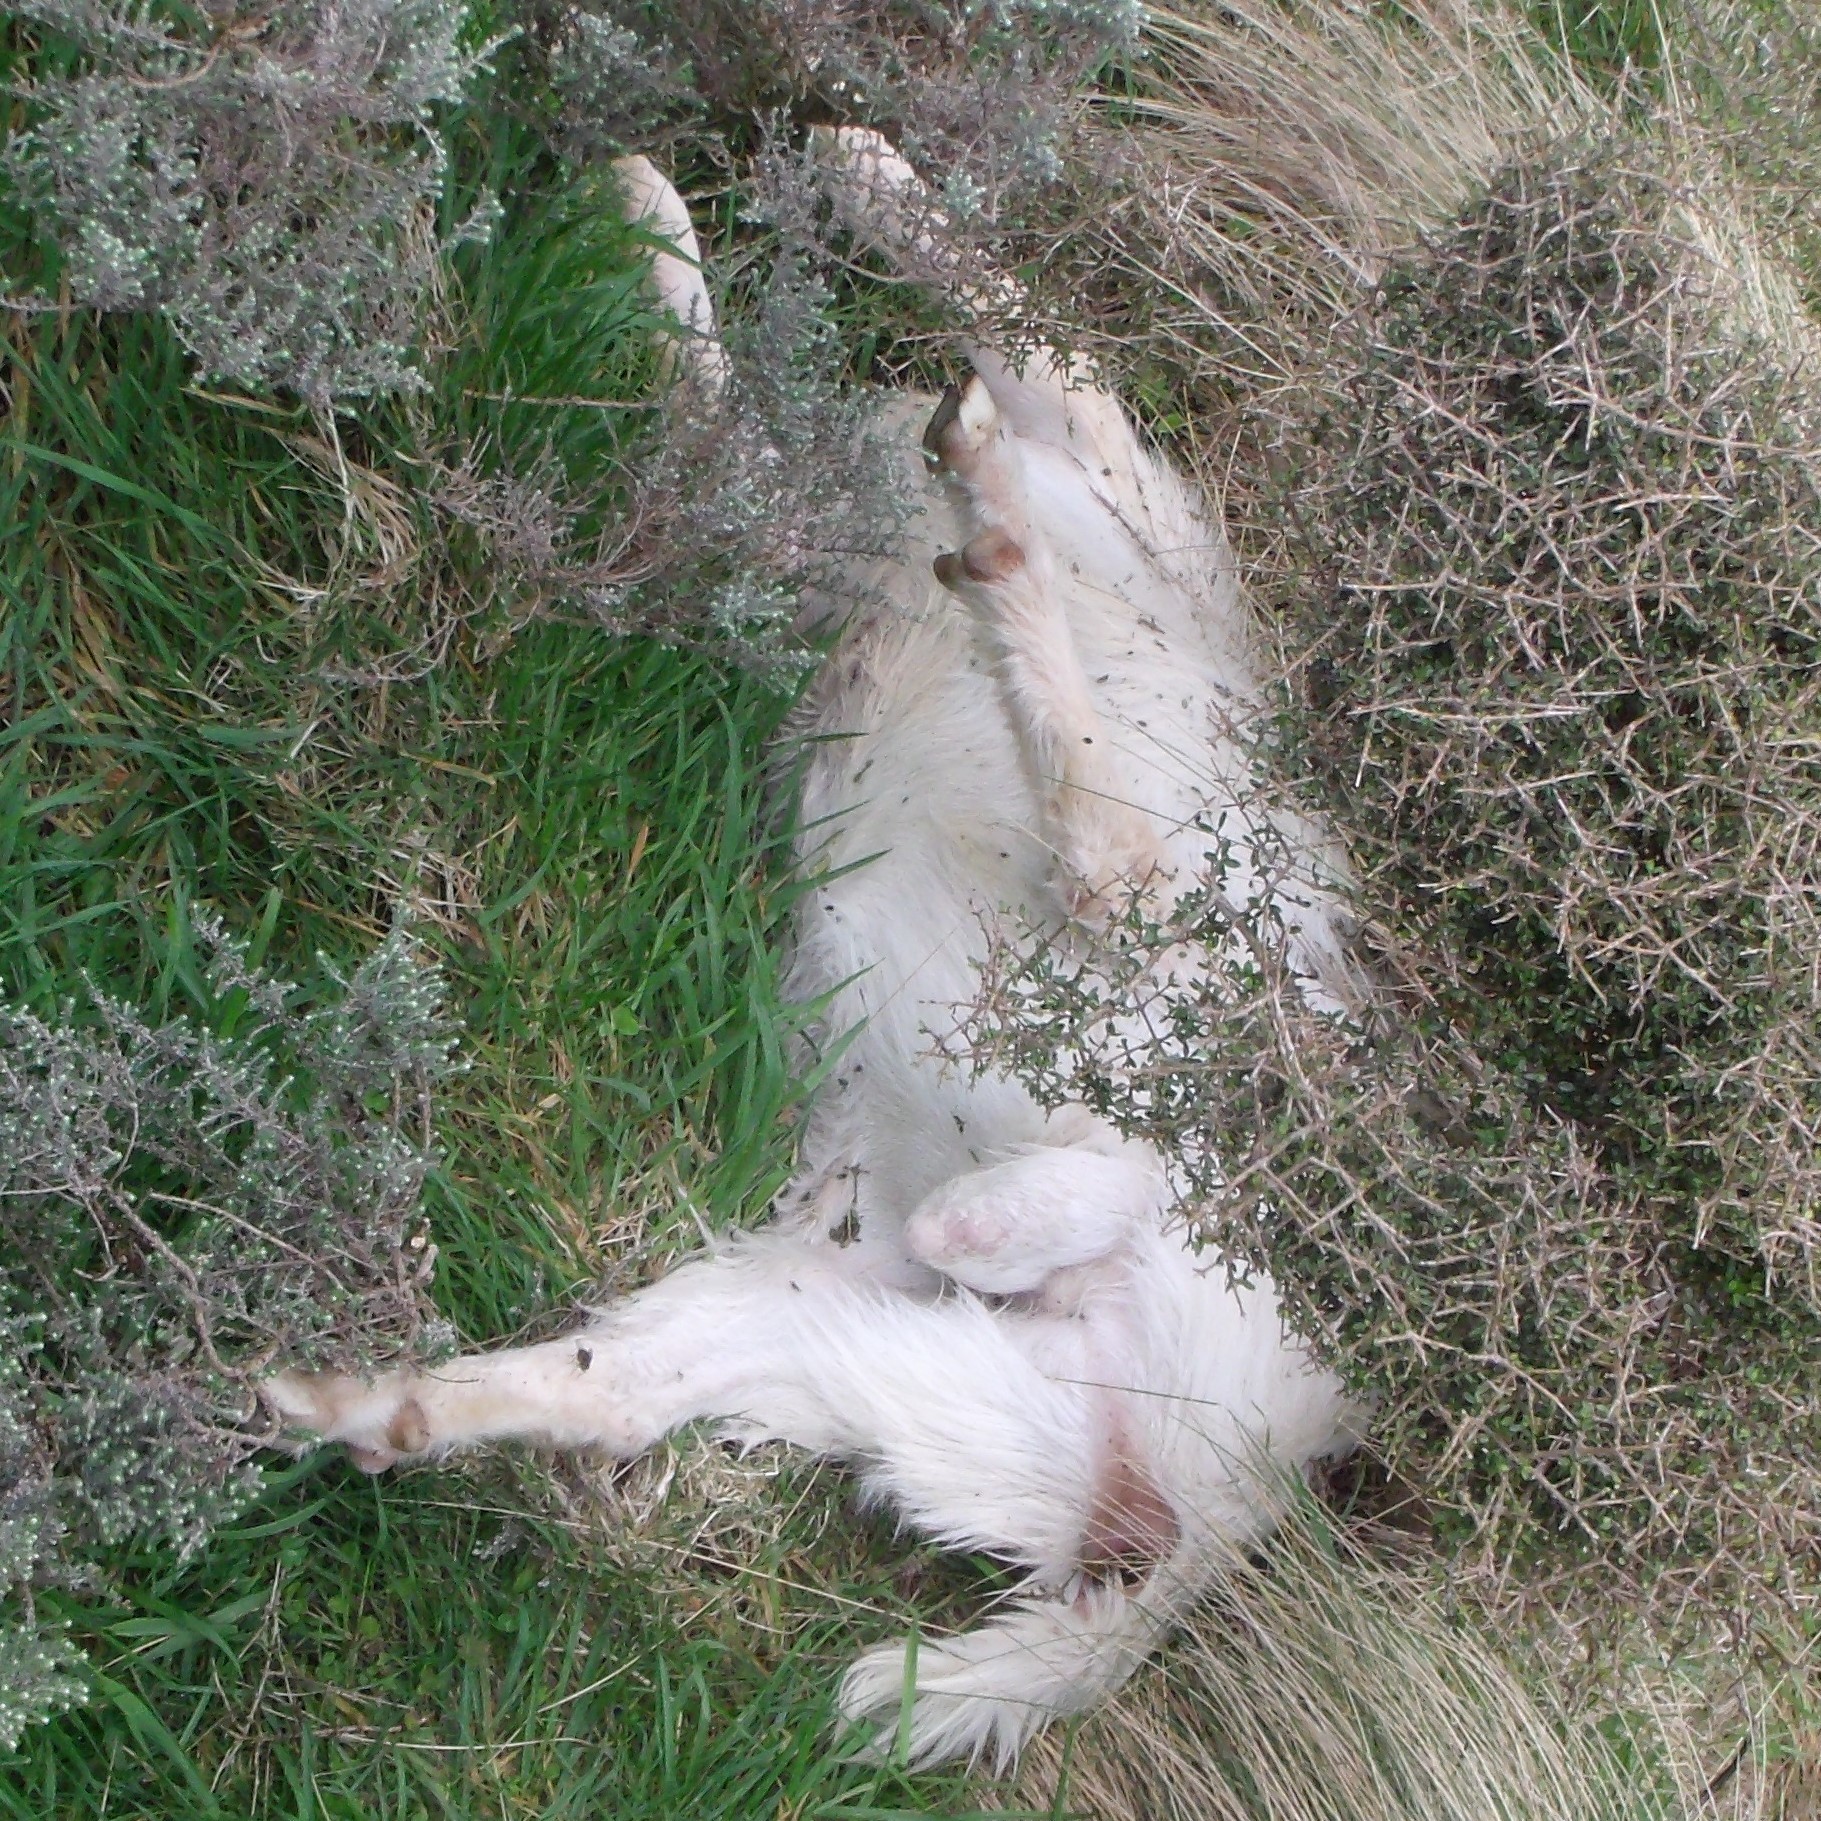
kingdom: Animalia
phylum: Chordata
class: Mammalia
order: Artiodactyla
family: Bovidae
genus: Capra
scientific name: Capra hircus
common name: Domestic goat
